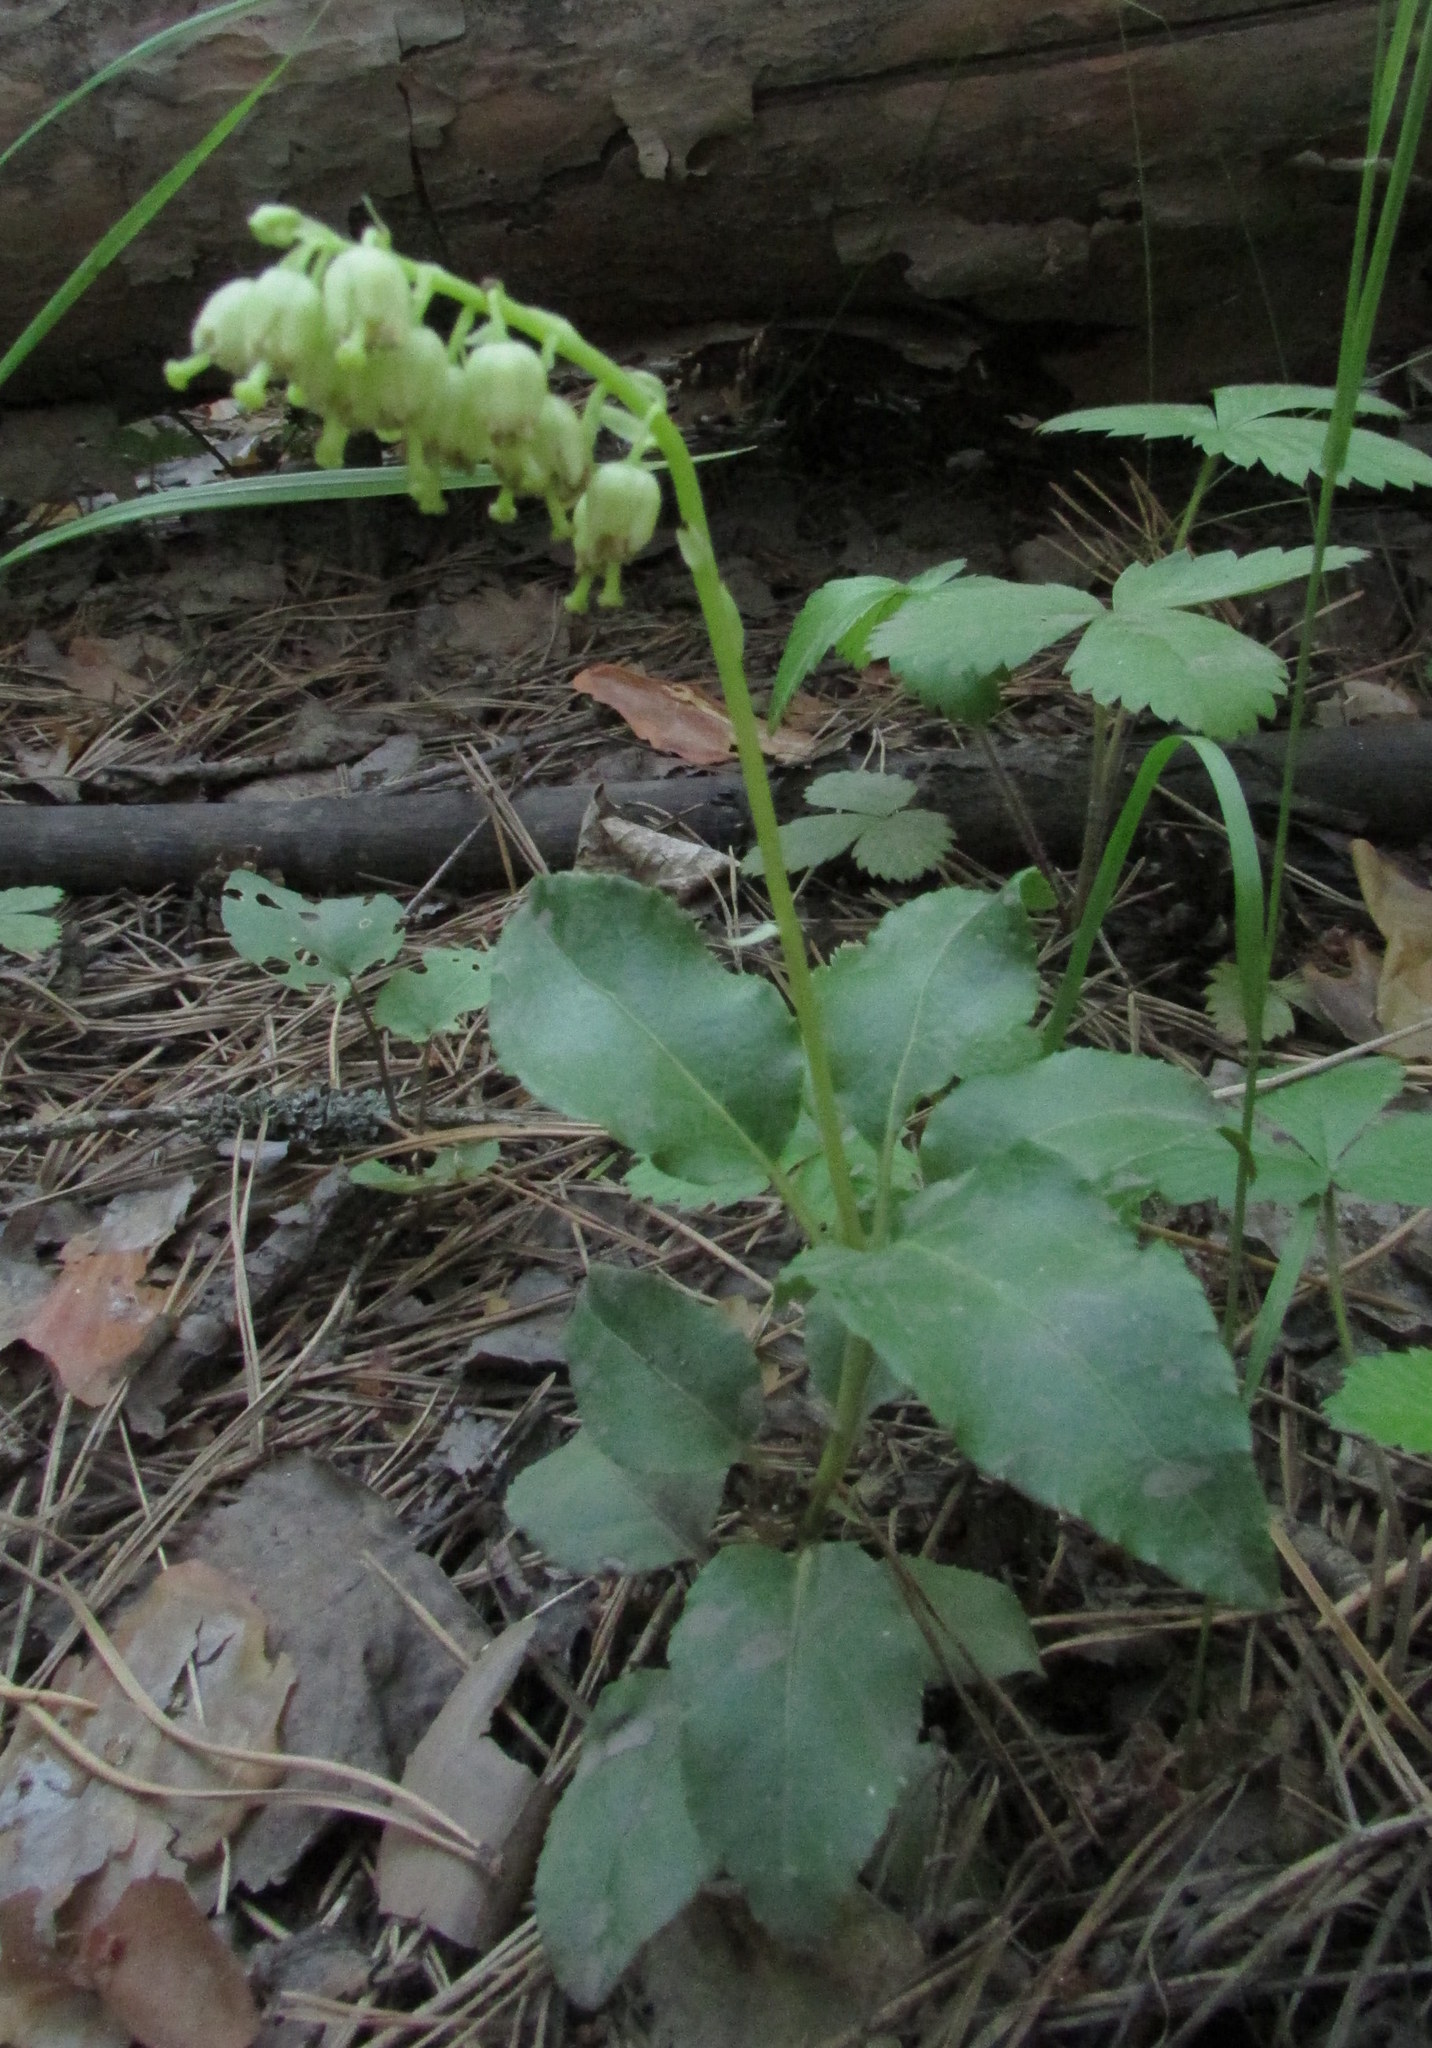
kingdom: Plantae
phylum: Tracheophyta
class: Magnoliopsida
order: Ericales
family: Ericaceae
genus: Orthilia
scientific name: Orthilia secunda
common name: One-sided orthilia
